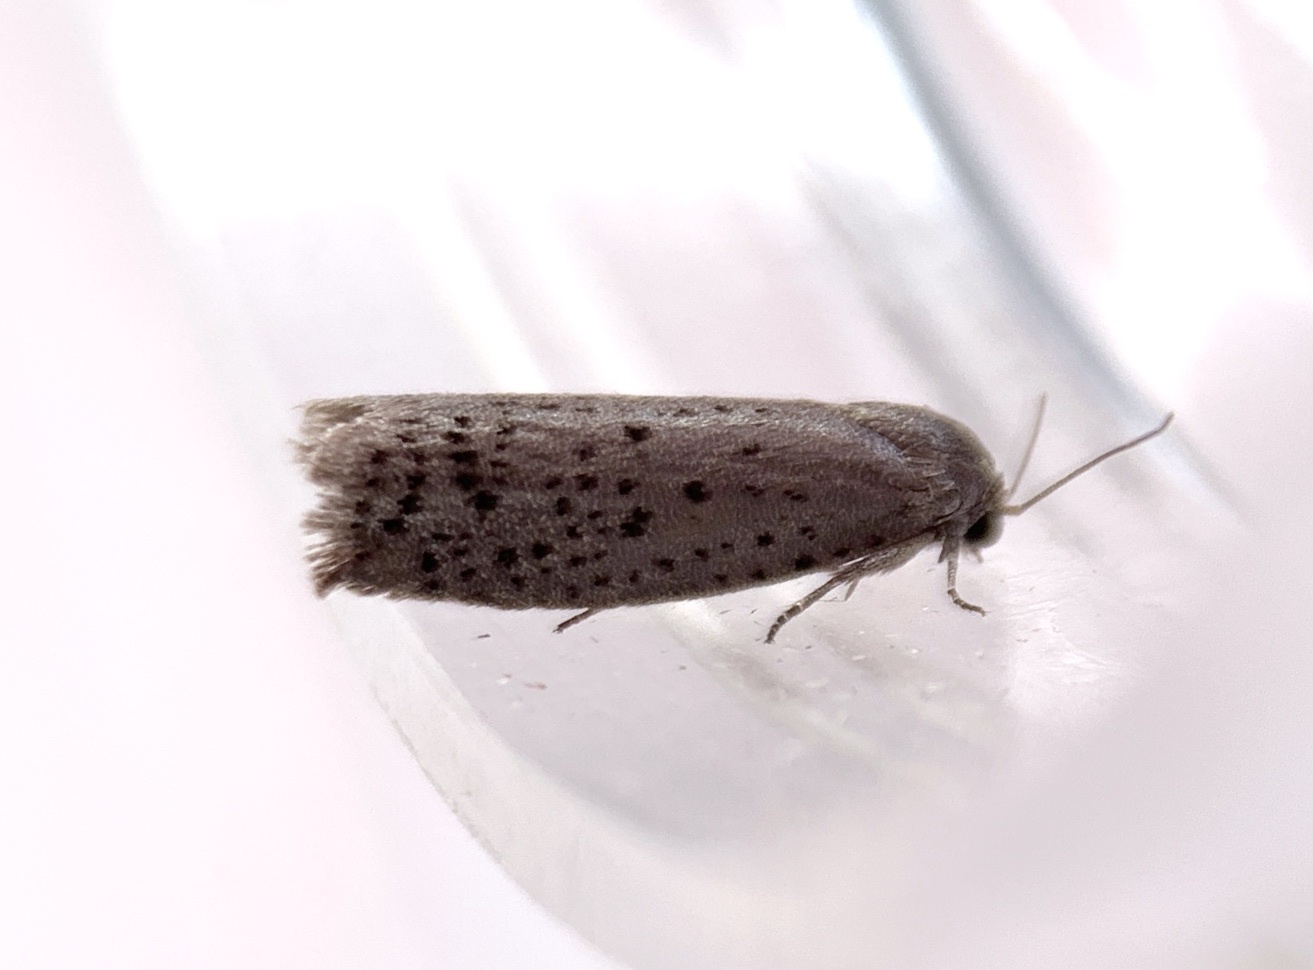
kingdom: Animalia
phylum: Arthropoda
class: Insecta
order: Lepidoptera
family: Galacticidae
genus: Homadaula
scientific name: Homadaula anisocentra
